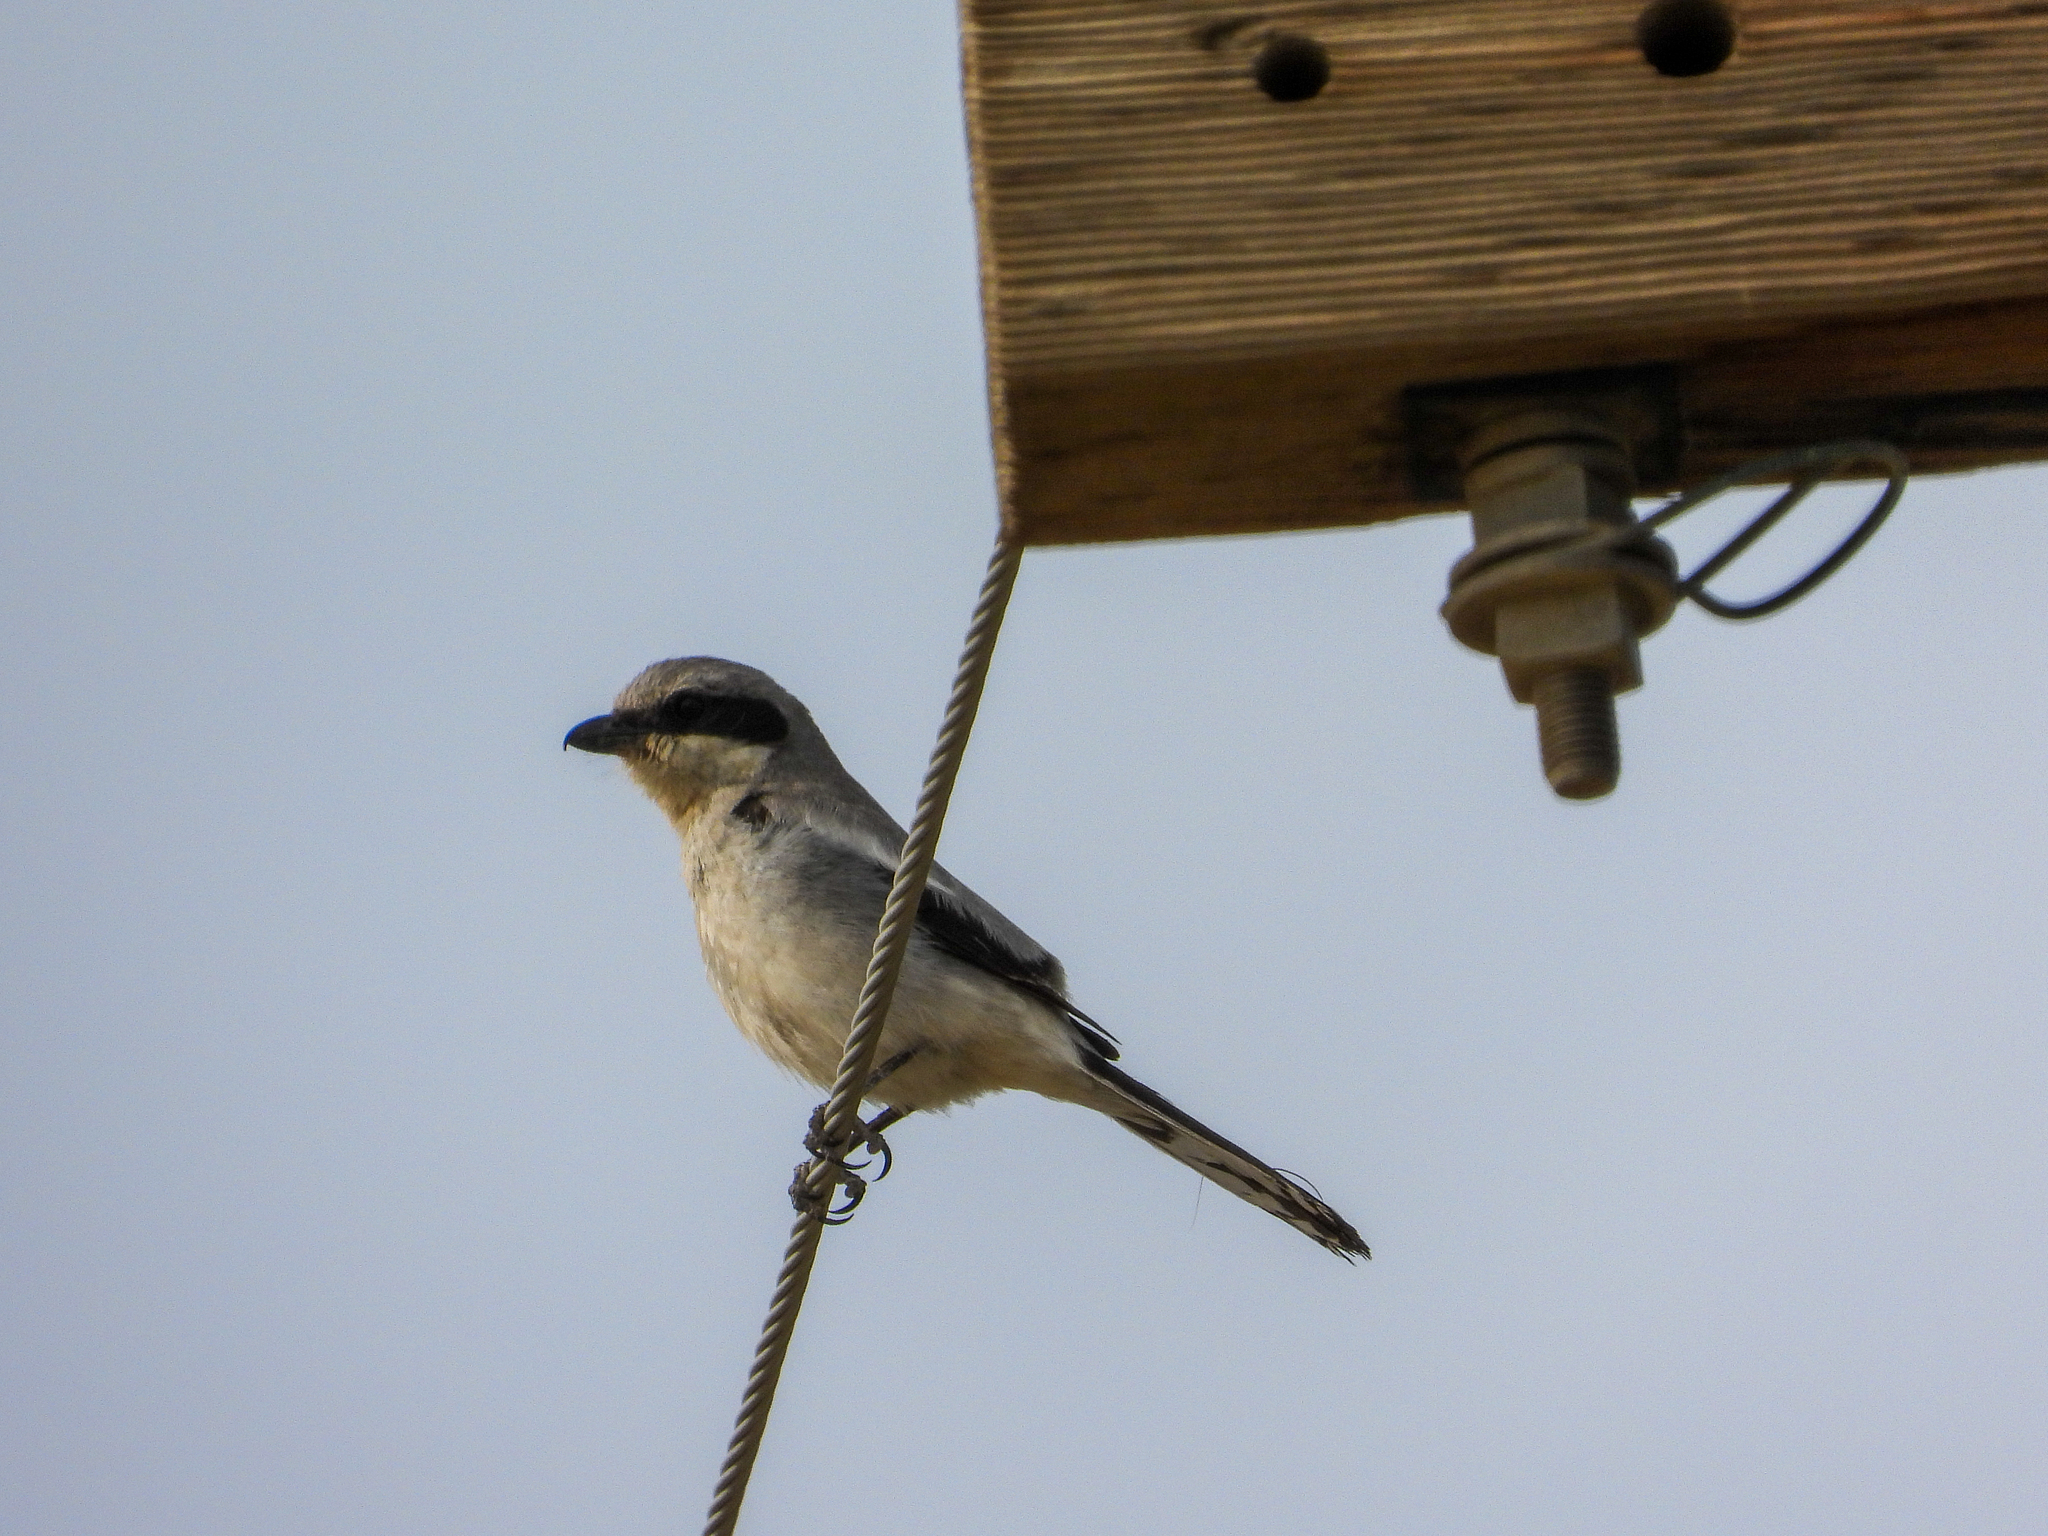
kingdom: Animalia
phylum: Chordata
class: Aves
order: Passeriformes
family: Laniidae
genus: Lanius
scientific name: Lanius ludovicianus
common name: Loggerhead shrike
